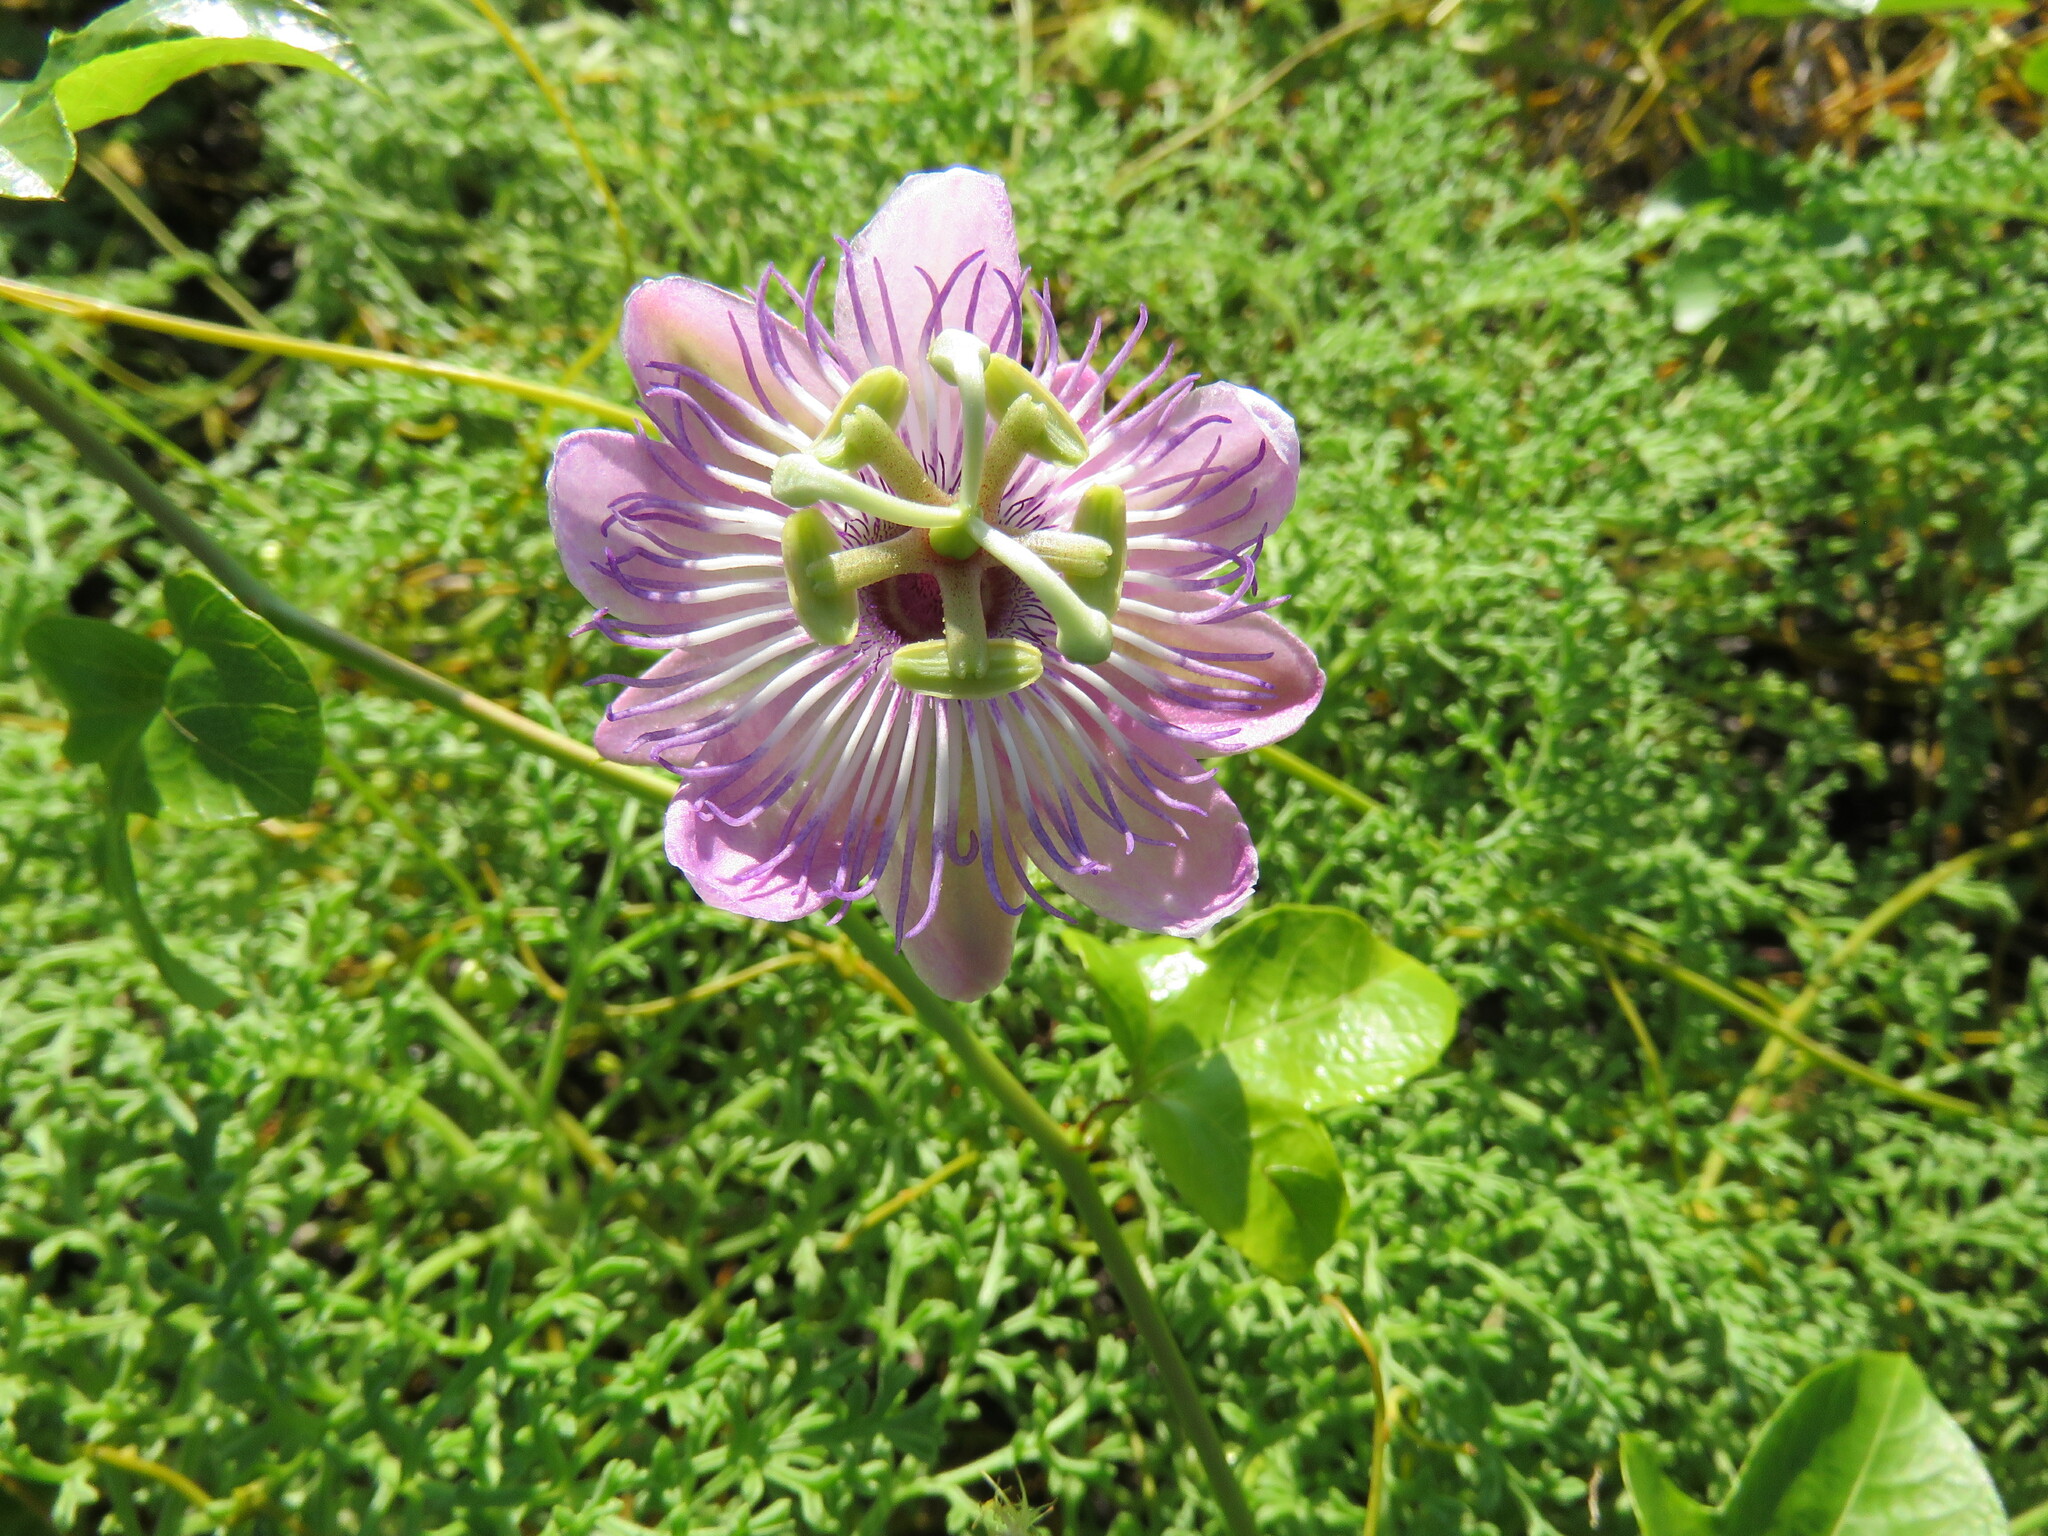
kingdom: Plantae
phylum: Tracheophyta
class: Magnoliopsida
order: Malpighiales
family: Passifloraceae
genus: Passiflora
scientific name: Passiflora ciliata
